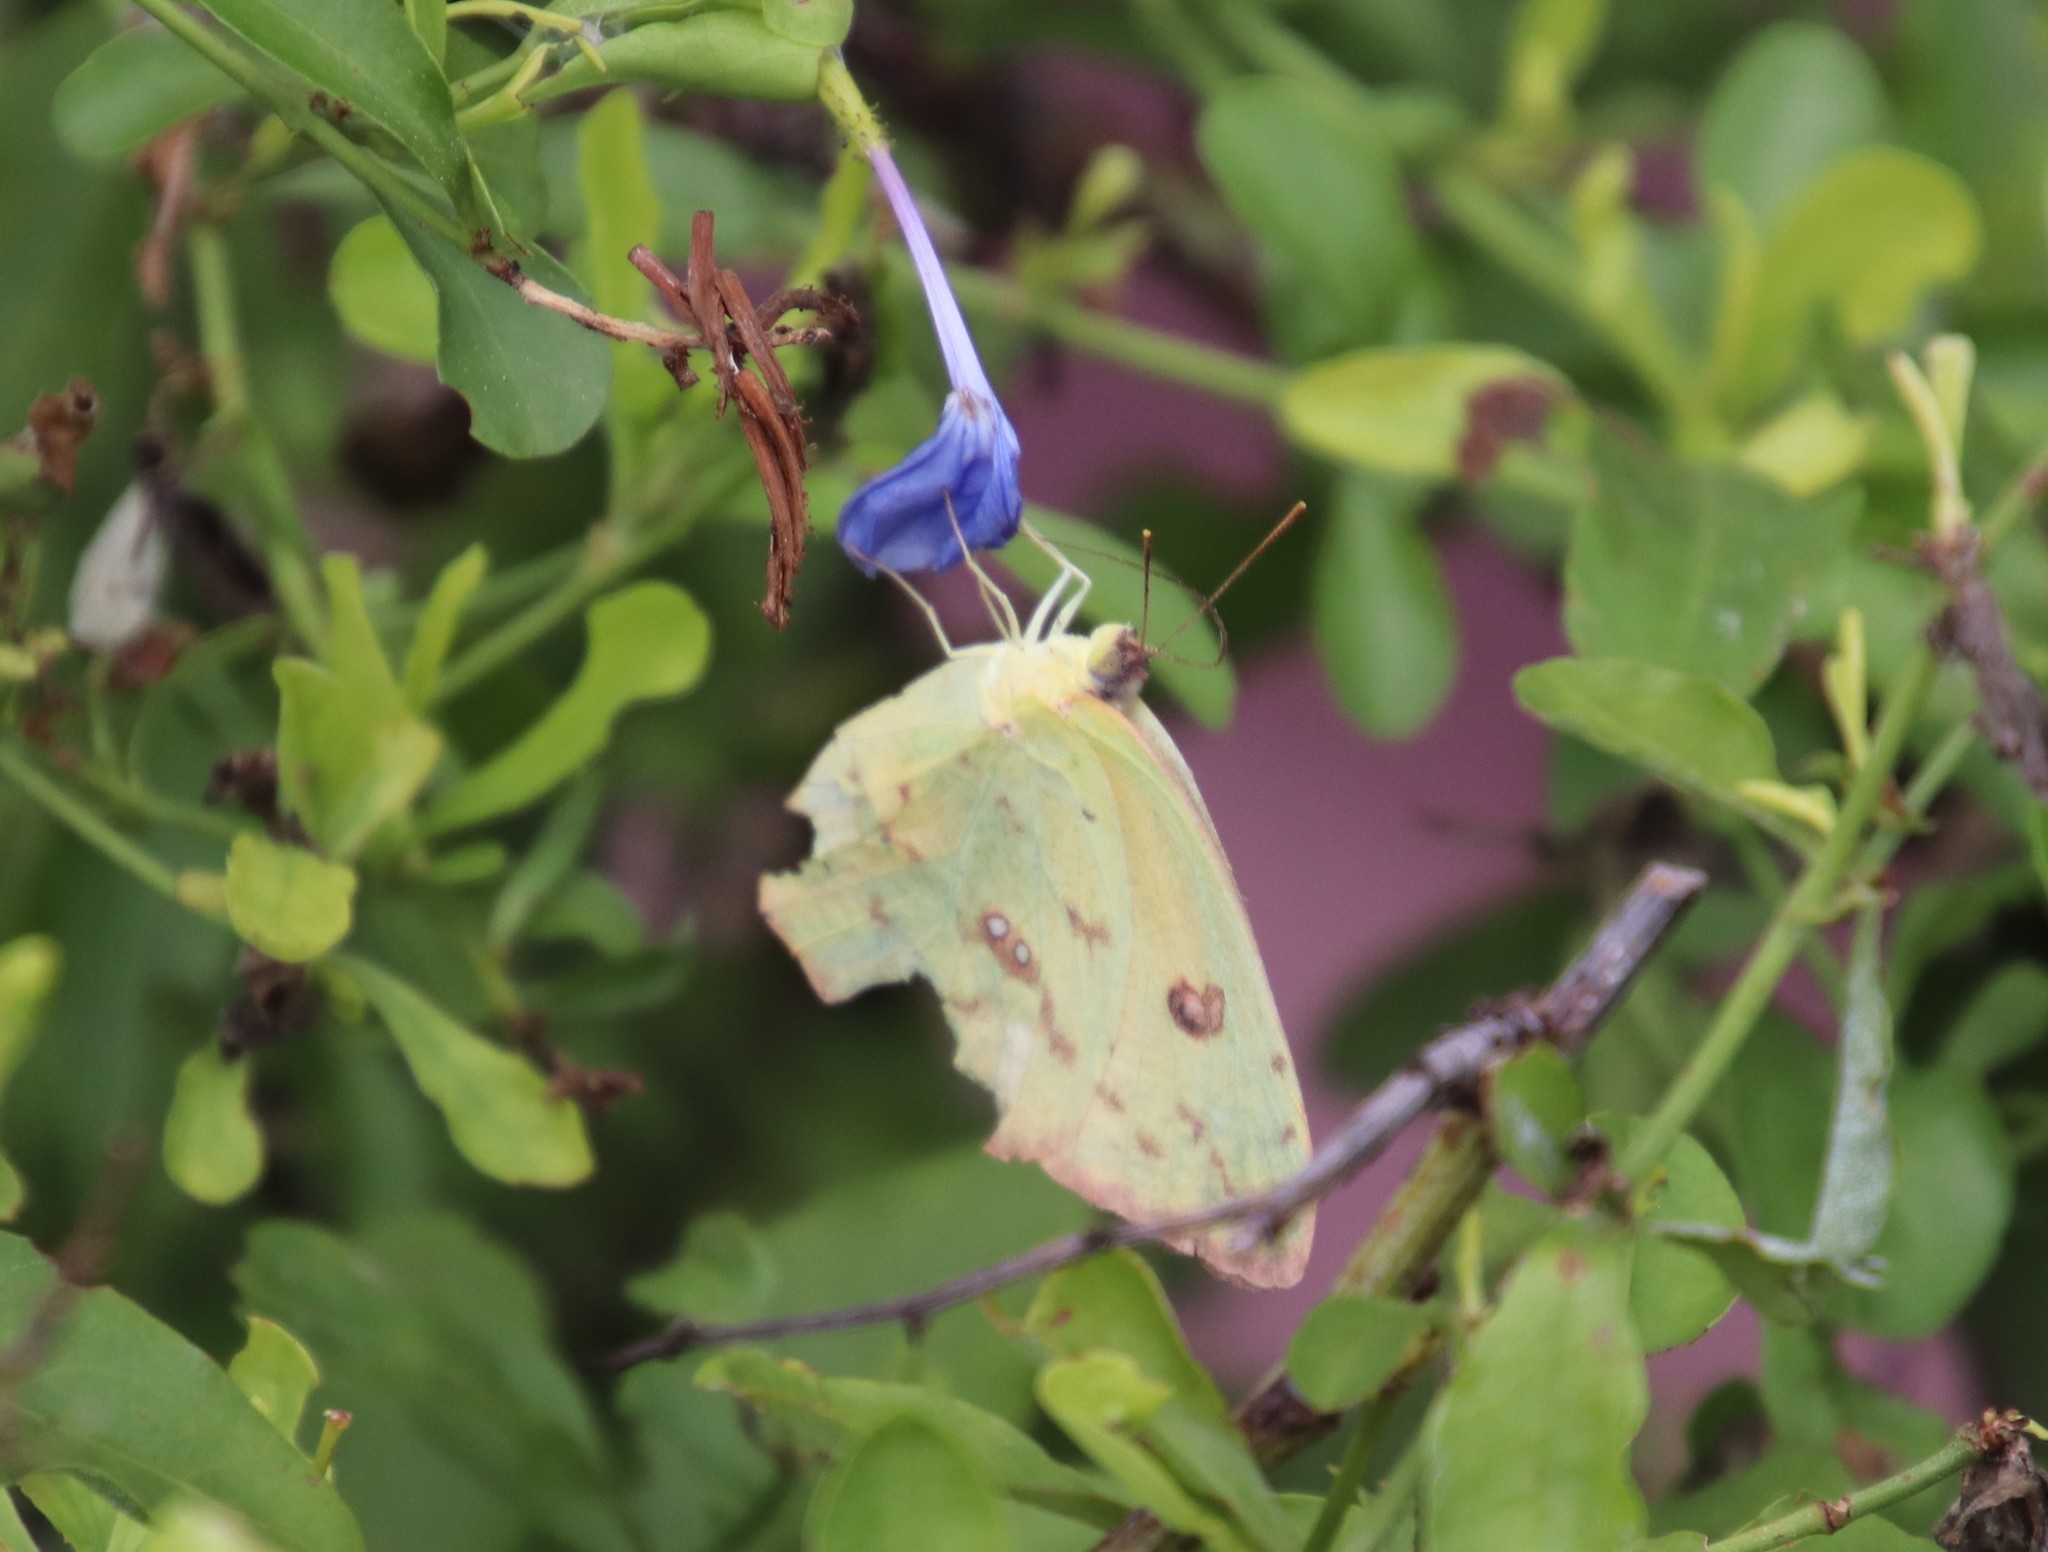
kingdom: Animalia
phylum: Arthropoda
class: Insecta
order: Lepidoptera
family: Pieridae
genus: Phoebis
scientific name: Phoebis sennae
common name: Cloudless sulphur
